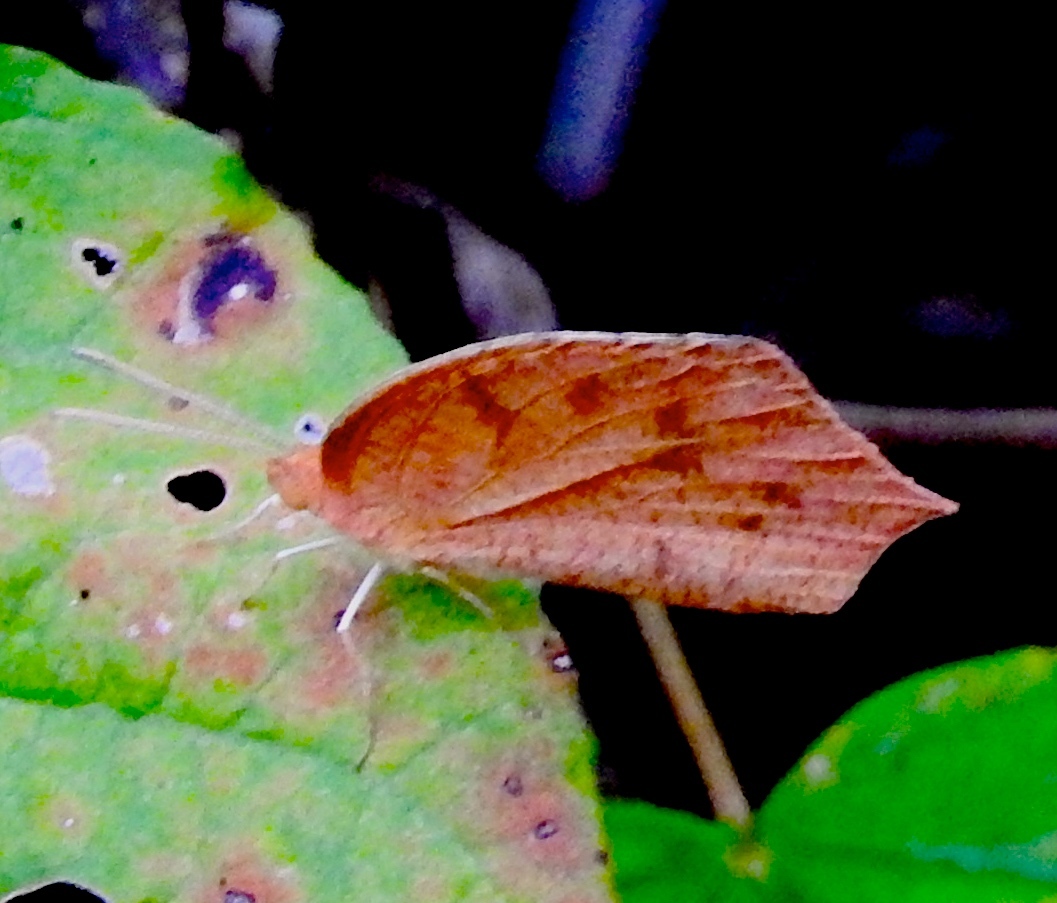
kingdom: Animalia
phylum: Arthropoda
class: Insecta
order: Lepidoptera
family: Pieridae
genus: Pyrisitia
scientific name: Pyrisitia proterpia
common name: Tailed orange
